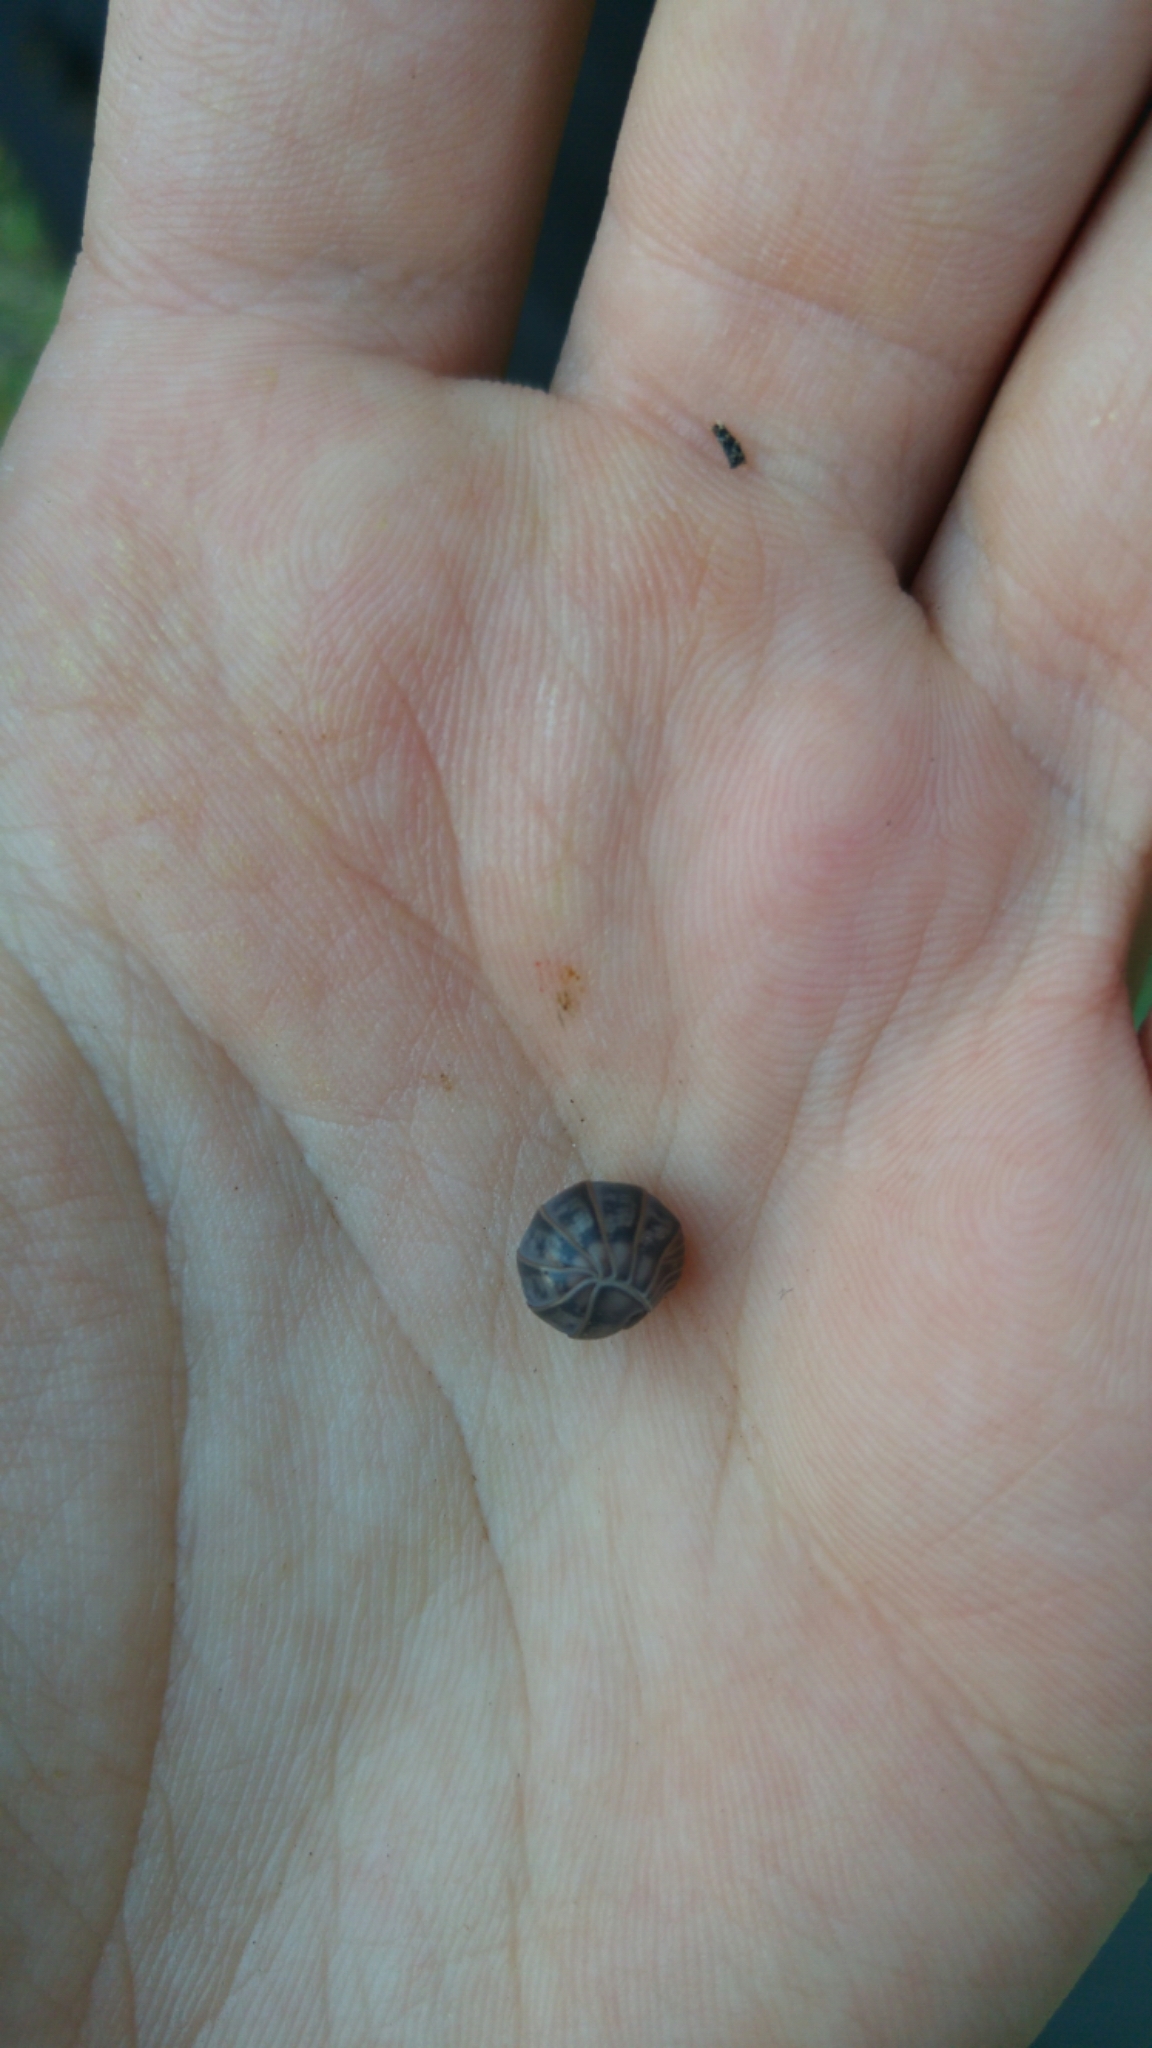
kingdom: Animalia
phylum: Arthropoda
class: Malacostraca
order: Isopoda
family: Armadillidae
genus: Armadillo
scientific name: Armadillo officinalis
